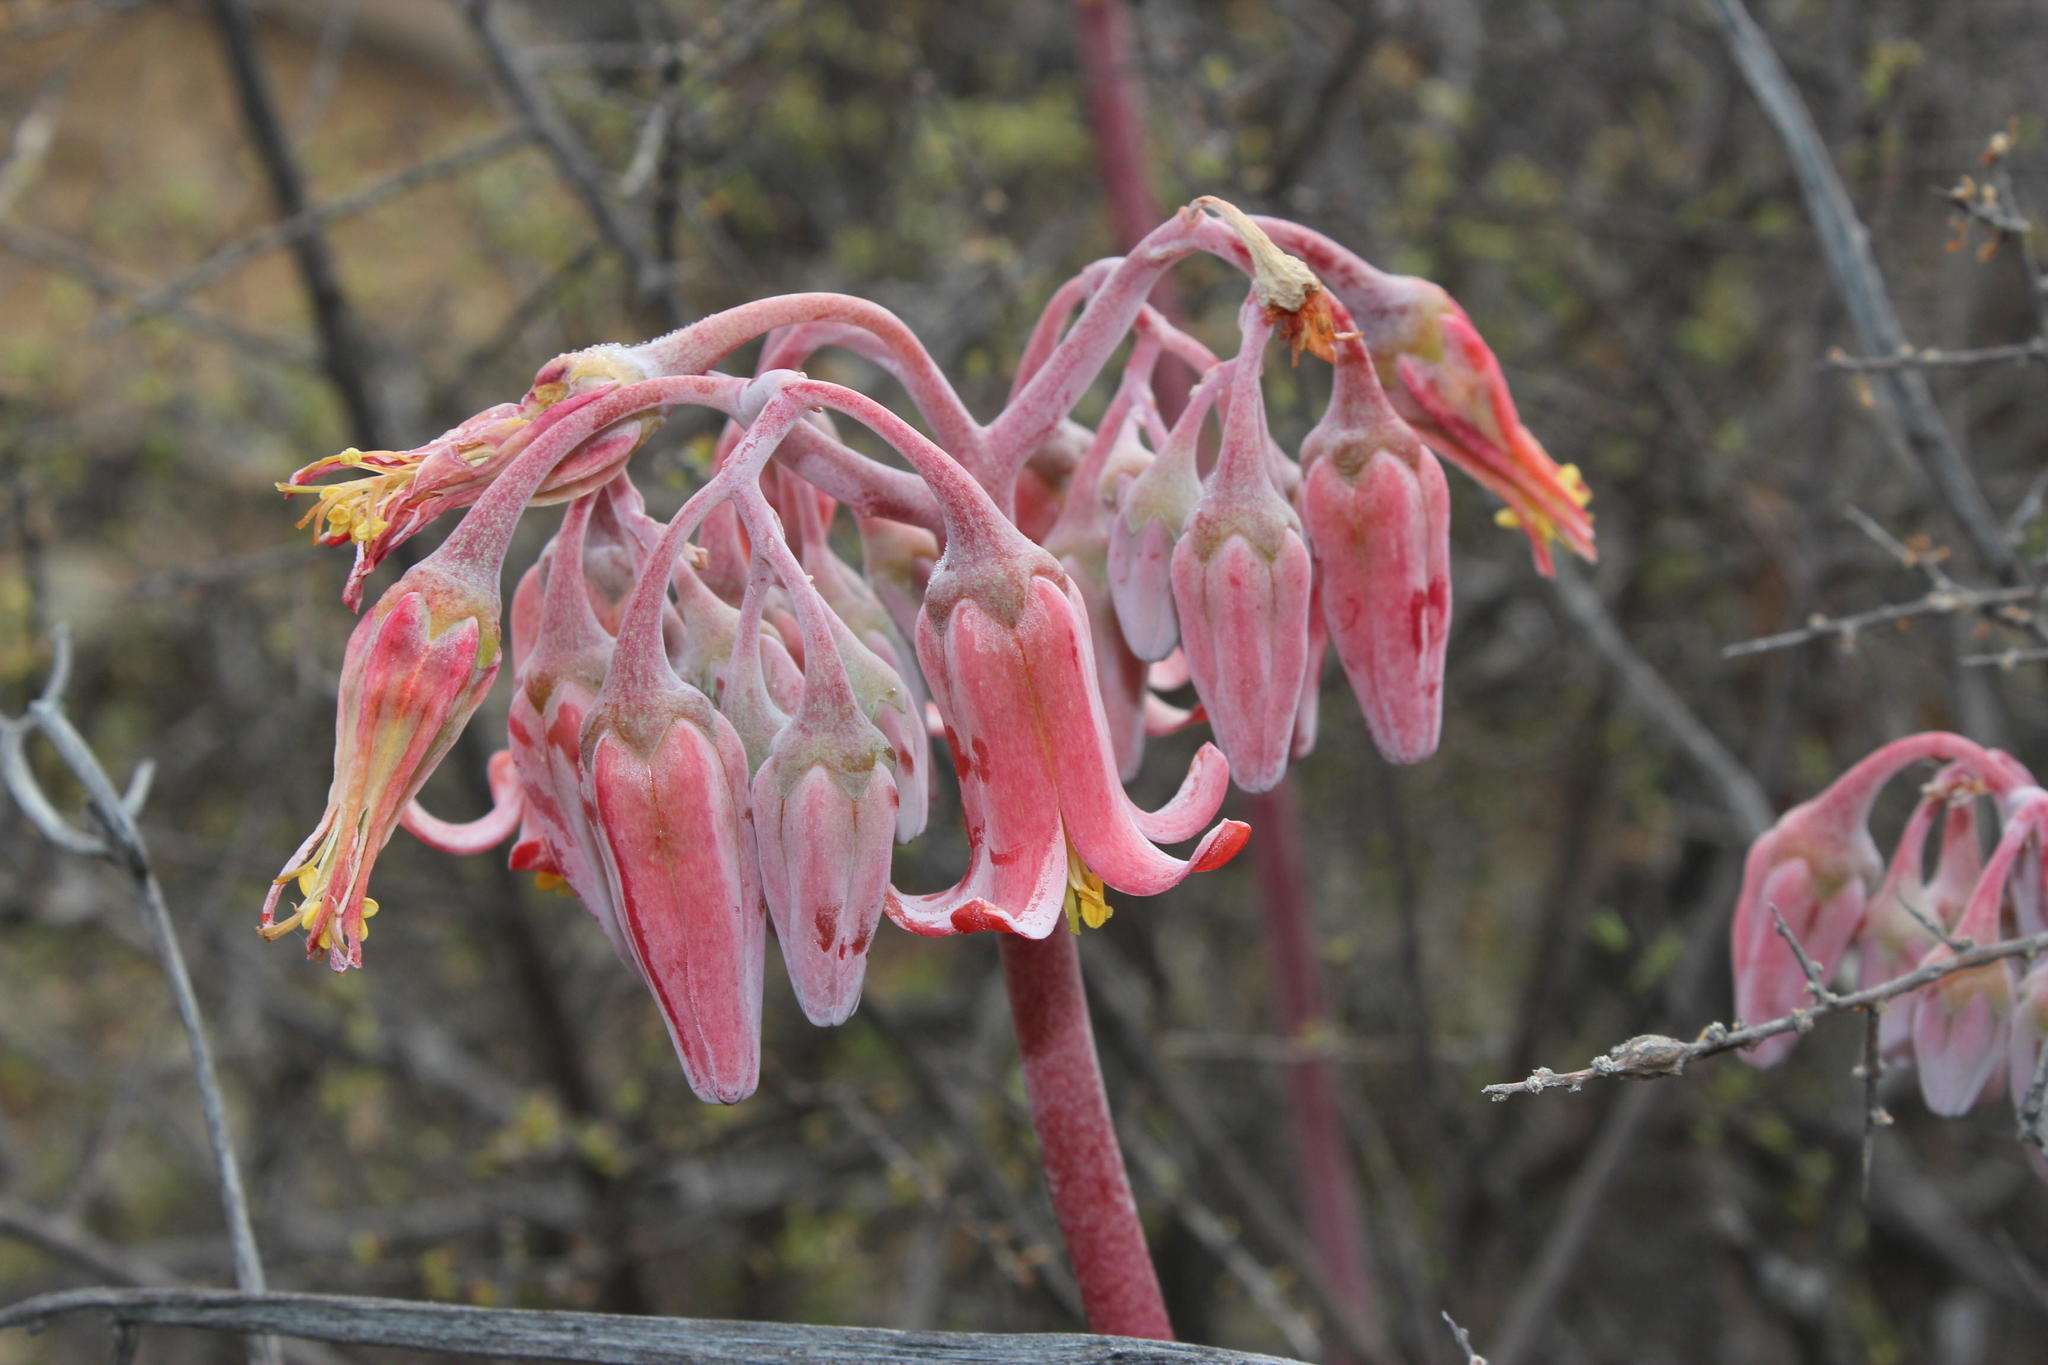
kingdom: Plantae
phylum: Tracheophyta
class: Magnoliopsida
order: Saxifragales
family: Crassulaceae
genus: Cotyledon
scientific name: Cotyledon orbiculata
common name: Pig's ear
